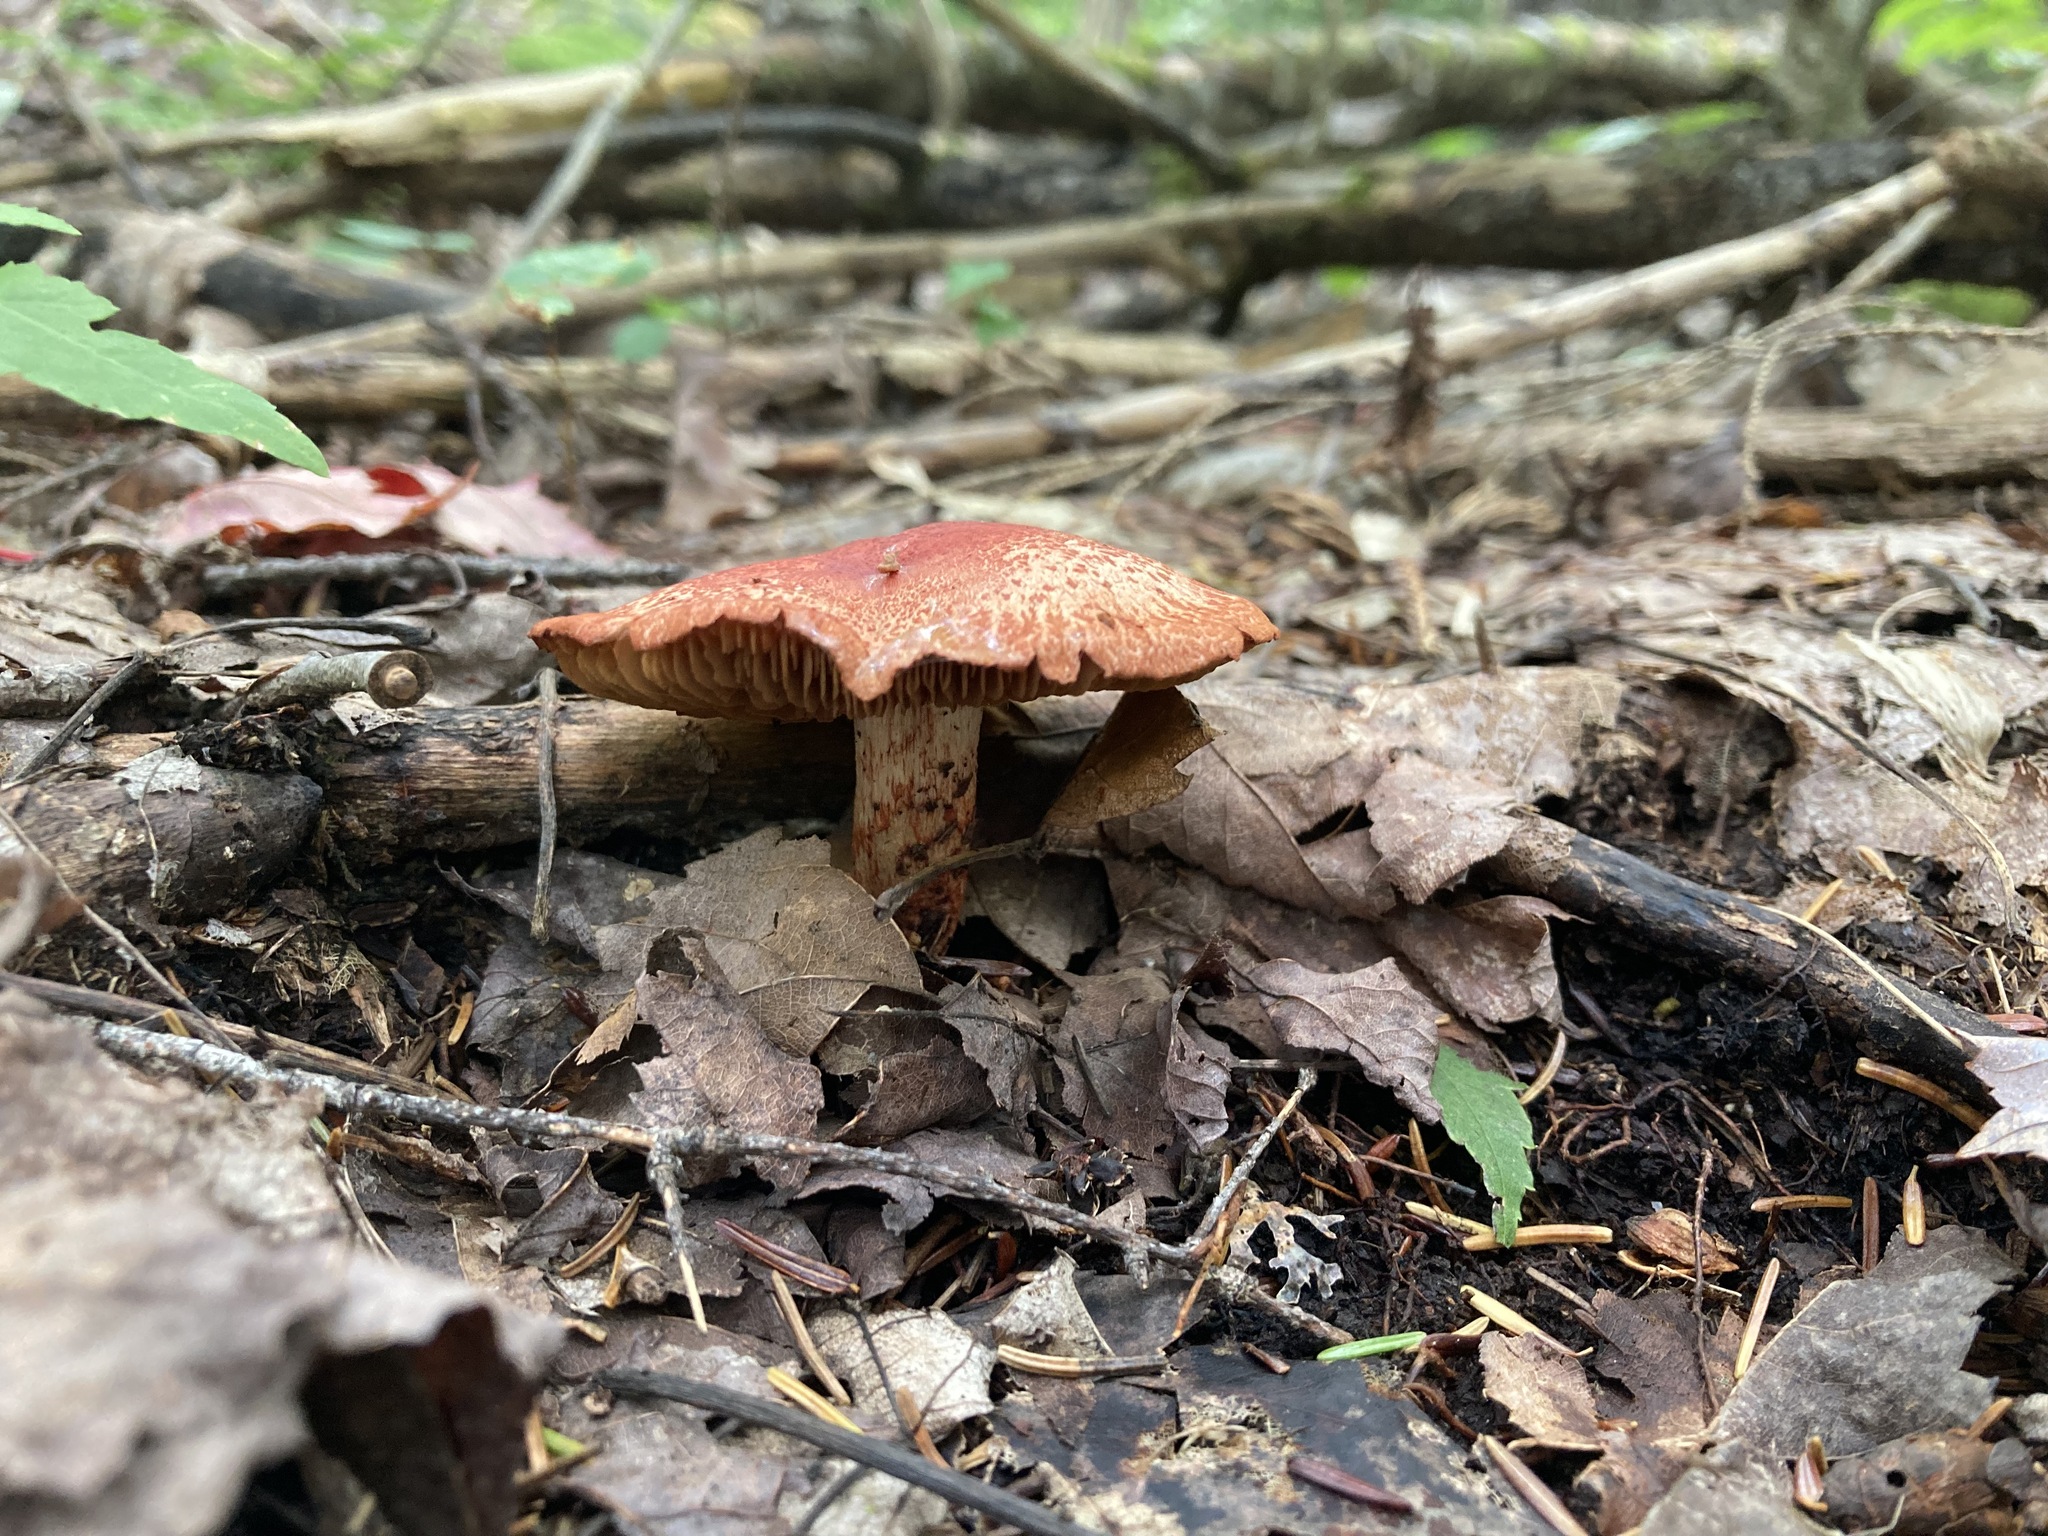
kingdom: Fungi
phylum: Basidiomycota
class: Agaricomycetes
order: Agaricales
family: Cortinariaceae
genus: Cortinarius
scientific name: Cortinarius bolaris
